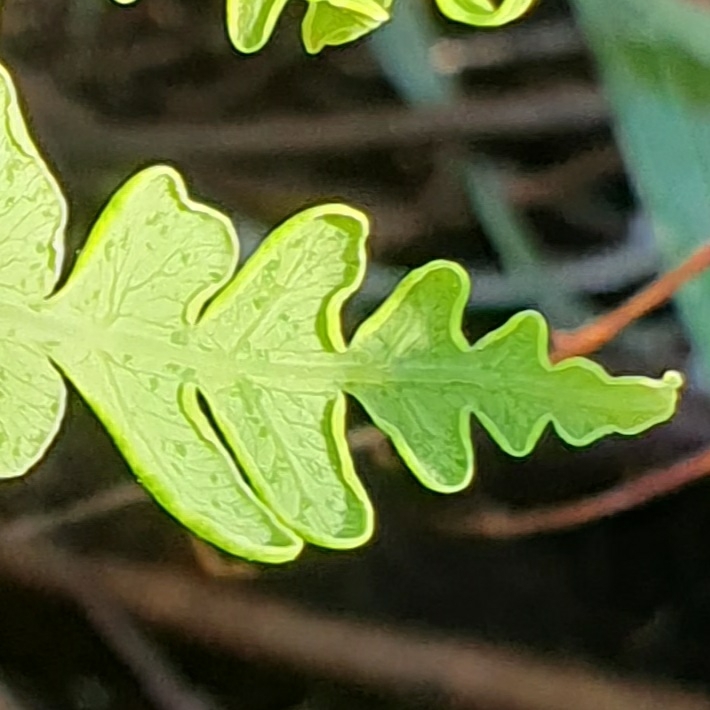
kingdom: Plantae
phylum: Tracheophyta
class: Polypodiopsida
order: Polypodiales
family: Dennstaedtiaceae
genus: Histiopteris
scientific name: Histiopteris incisa
